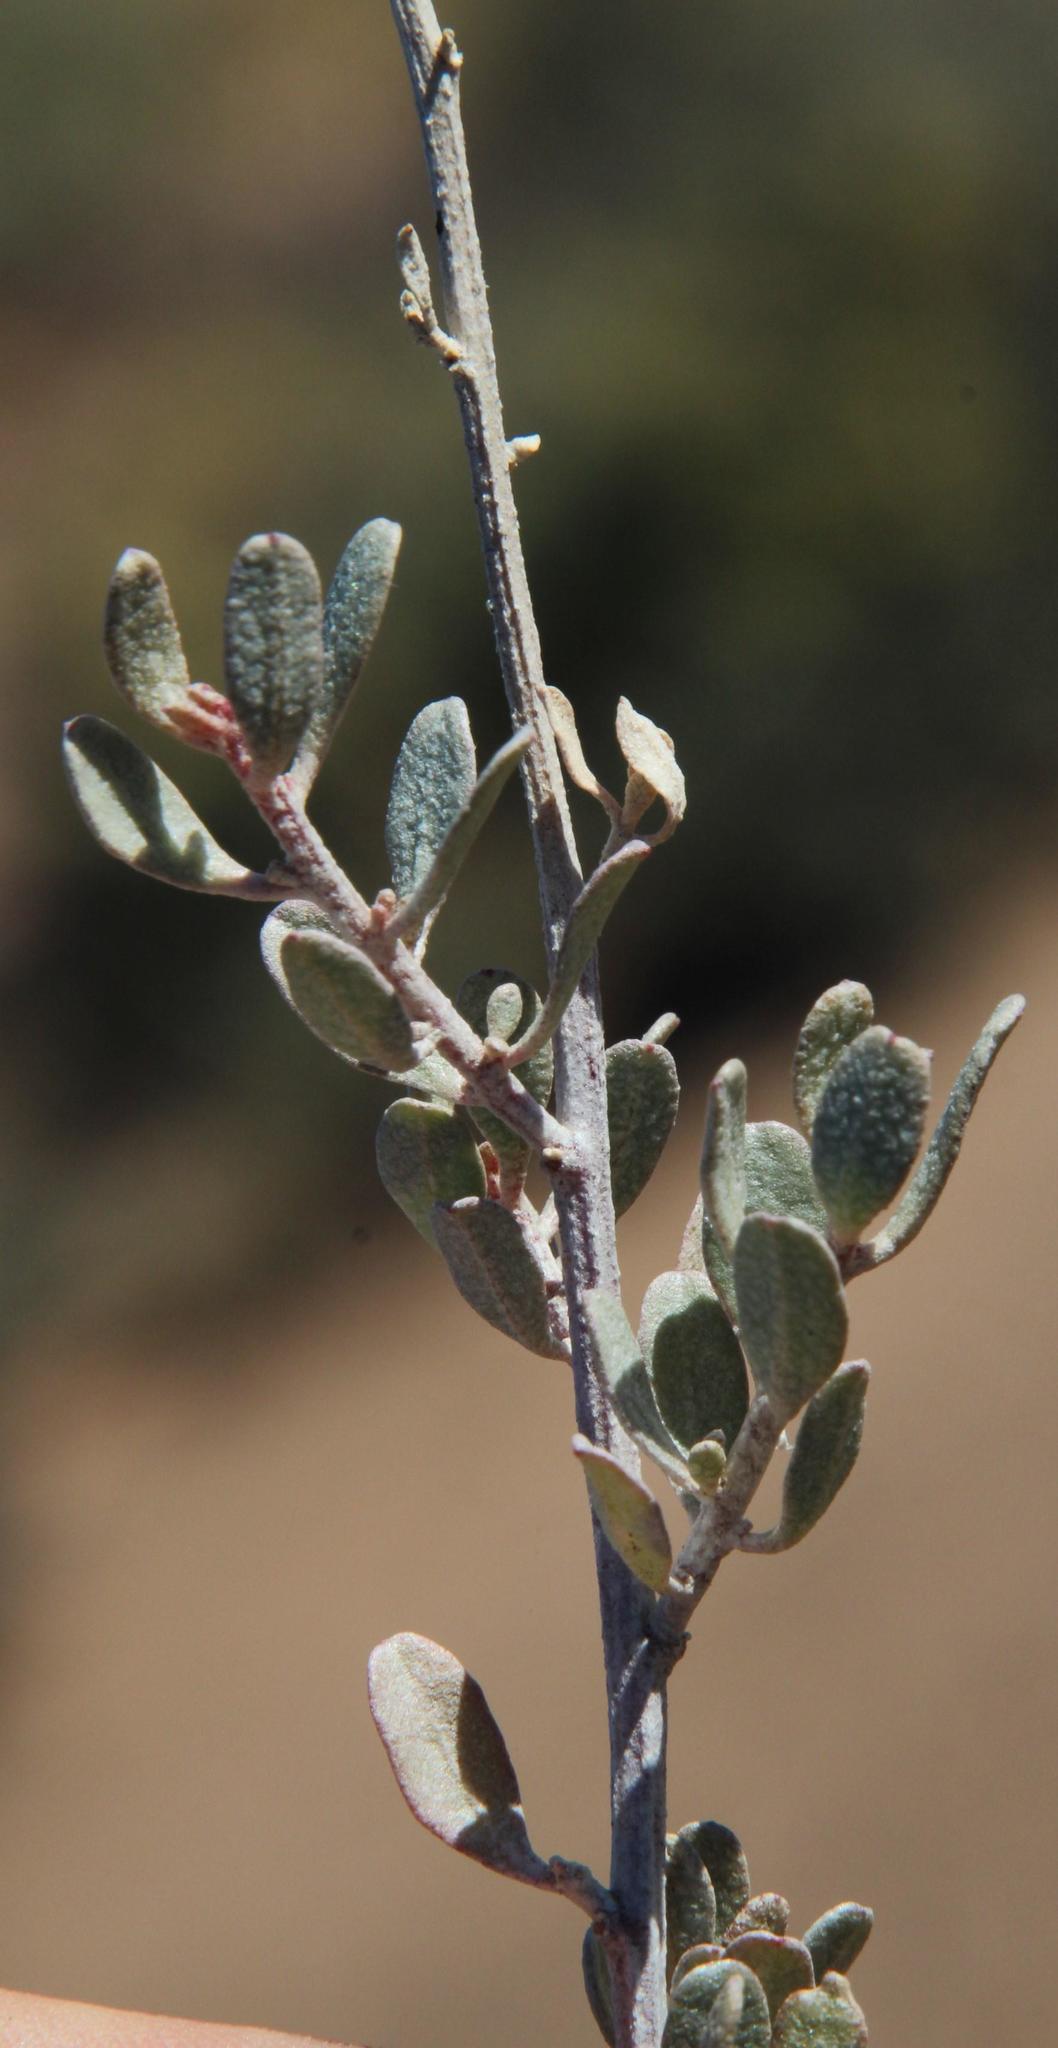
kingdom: Plantae
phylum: Tracheophyta
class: Magnoliopsida
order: Caryophyllales
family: Amaranthaceae
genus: Atriplex
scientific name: Atriplex vestita
